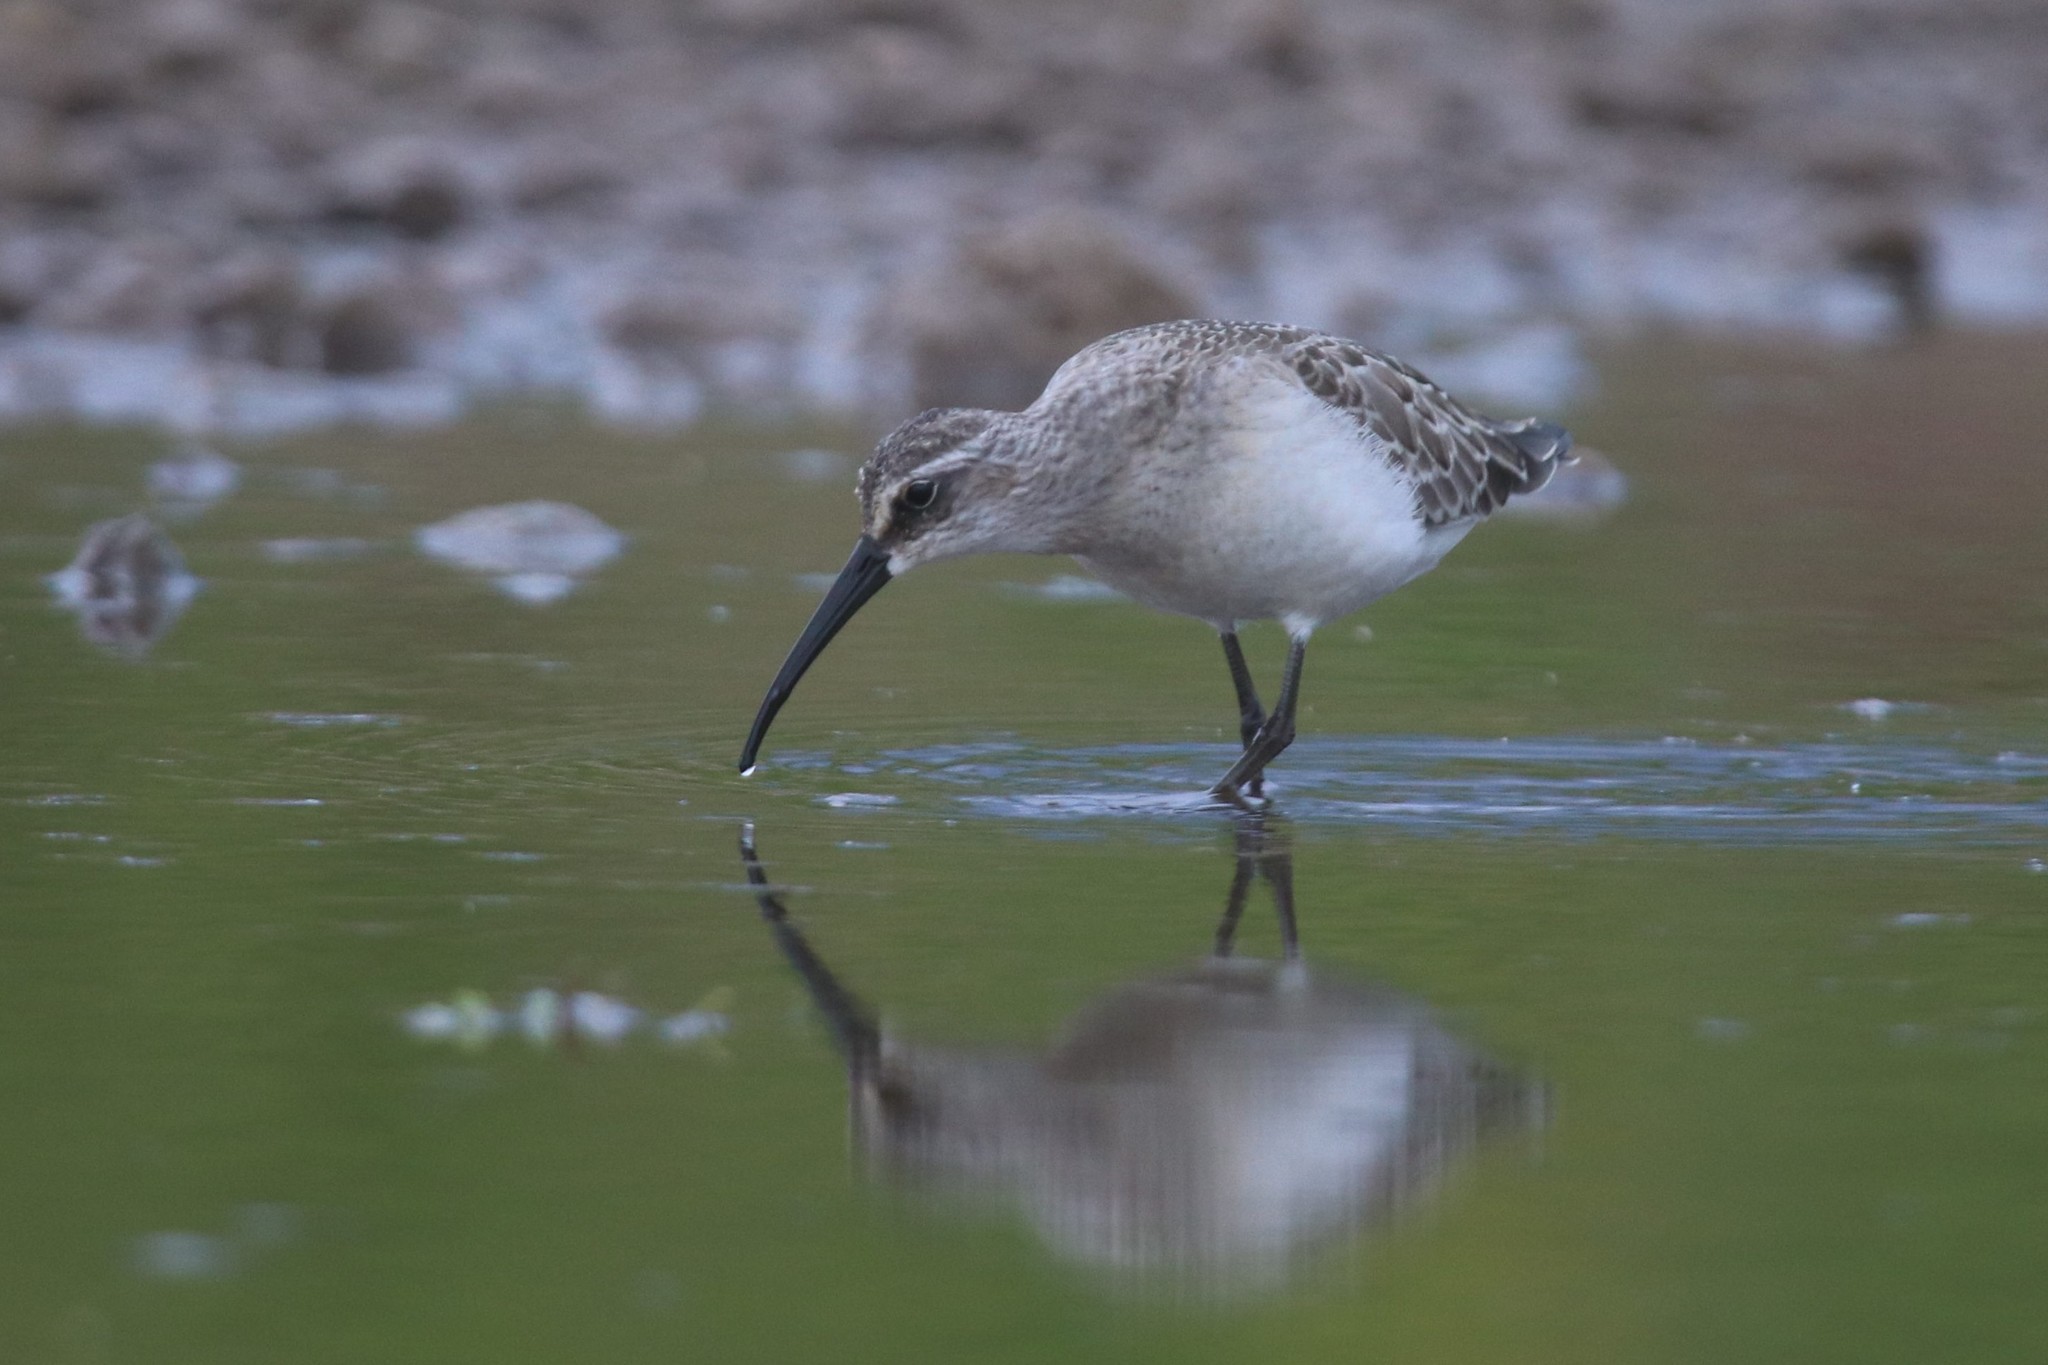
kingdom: Animalia
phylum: Chordata
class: Aves
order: Charadriiformes
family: Scolopacidae
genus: Calidris
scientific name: Calidris ferruginea
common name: Curlew sandpiper
